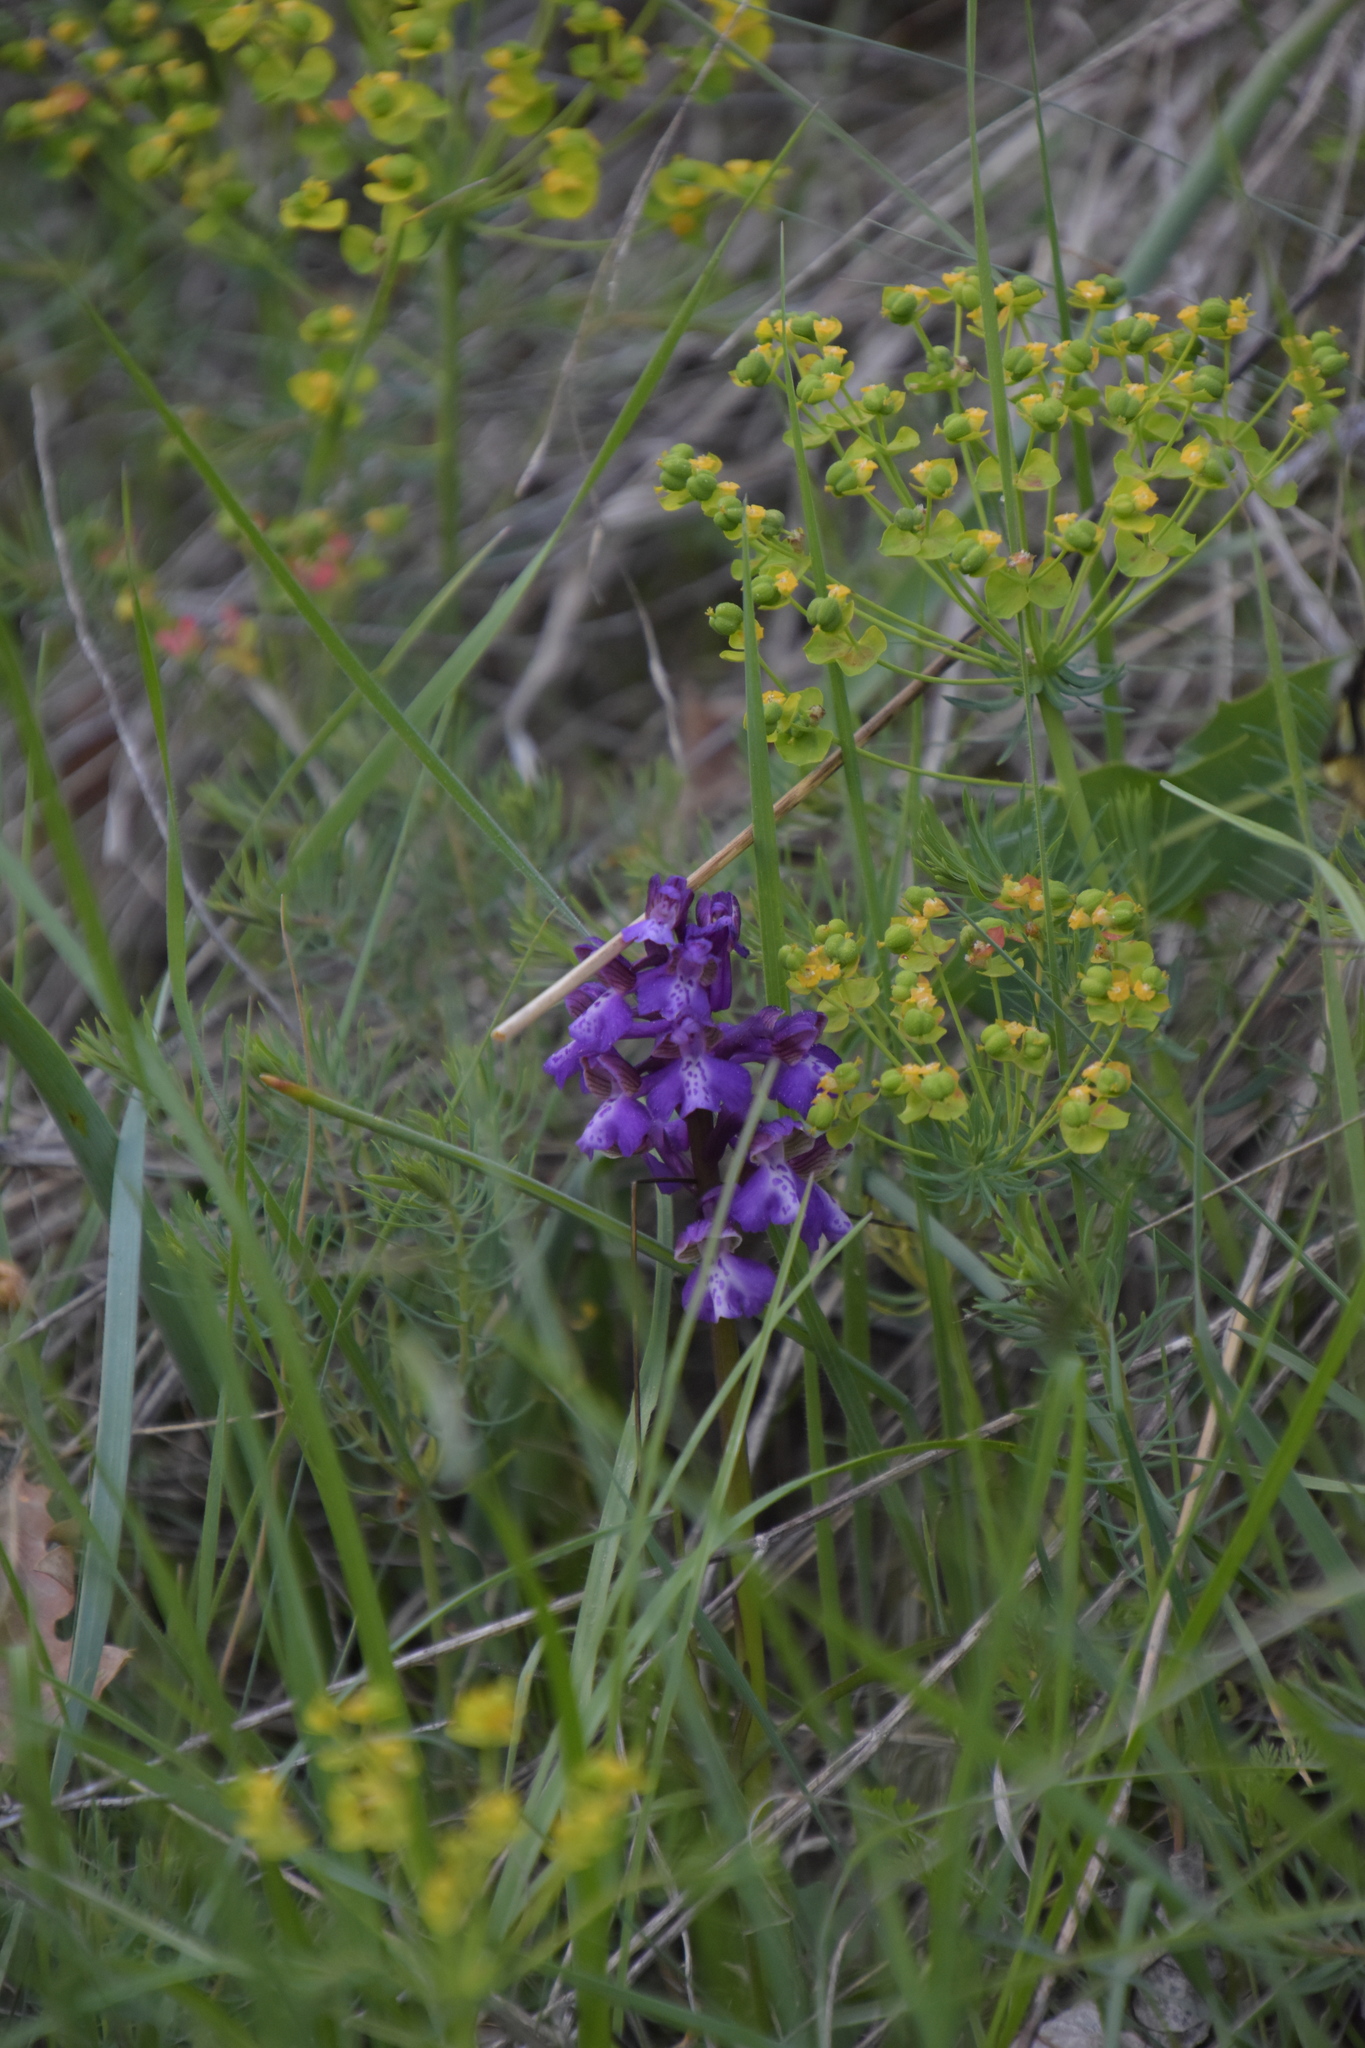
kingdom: Plantae
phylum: Tracheophyta
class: Liliopsida
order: Asparagales
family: Orchidaceae
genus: Anacamptis
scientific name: Anacamptis morio
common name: Green-winged orchid
